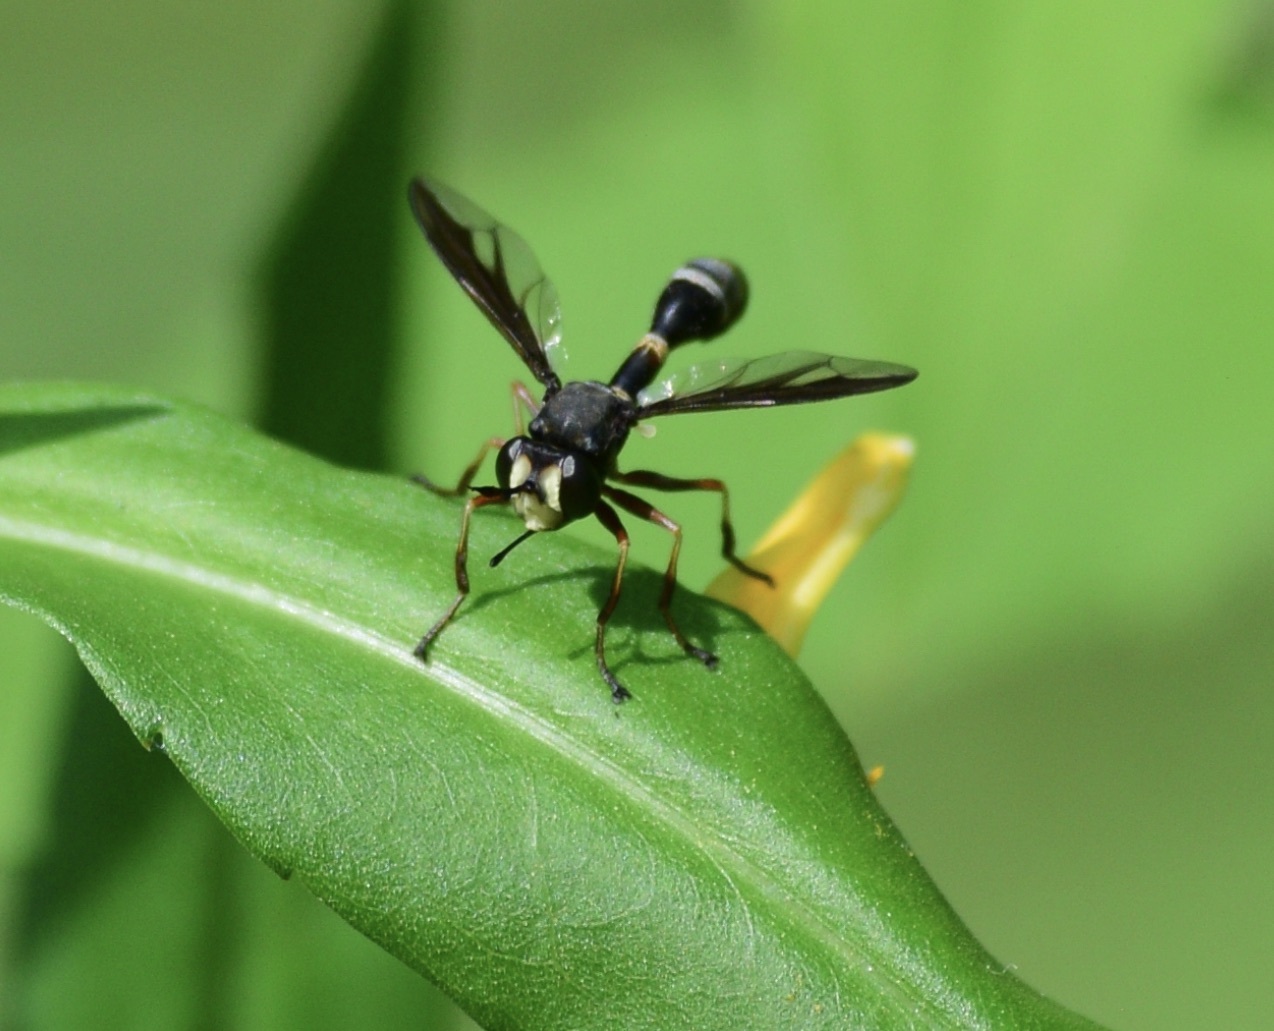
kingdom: Animalia
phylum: Arthropoda
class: Insecta
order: Diptera
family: Conopidae
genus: Physocephala
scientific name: Physocephala furcillata
